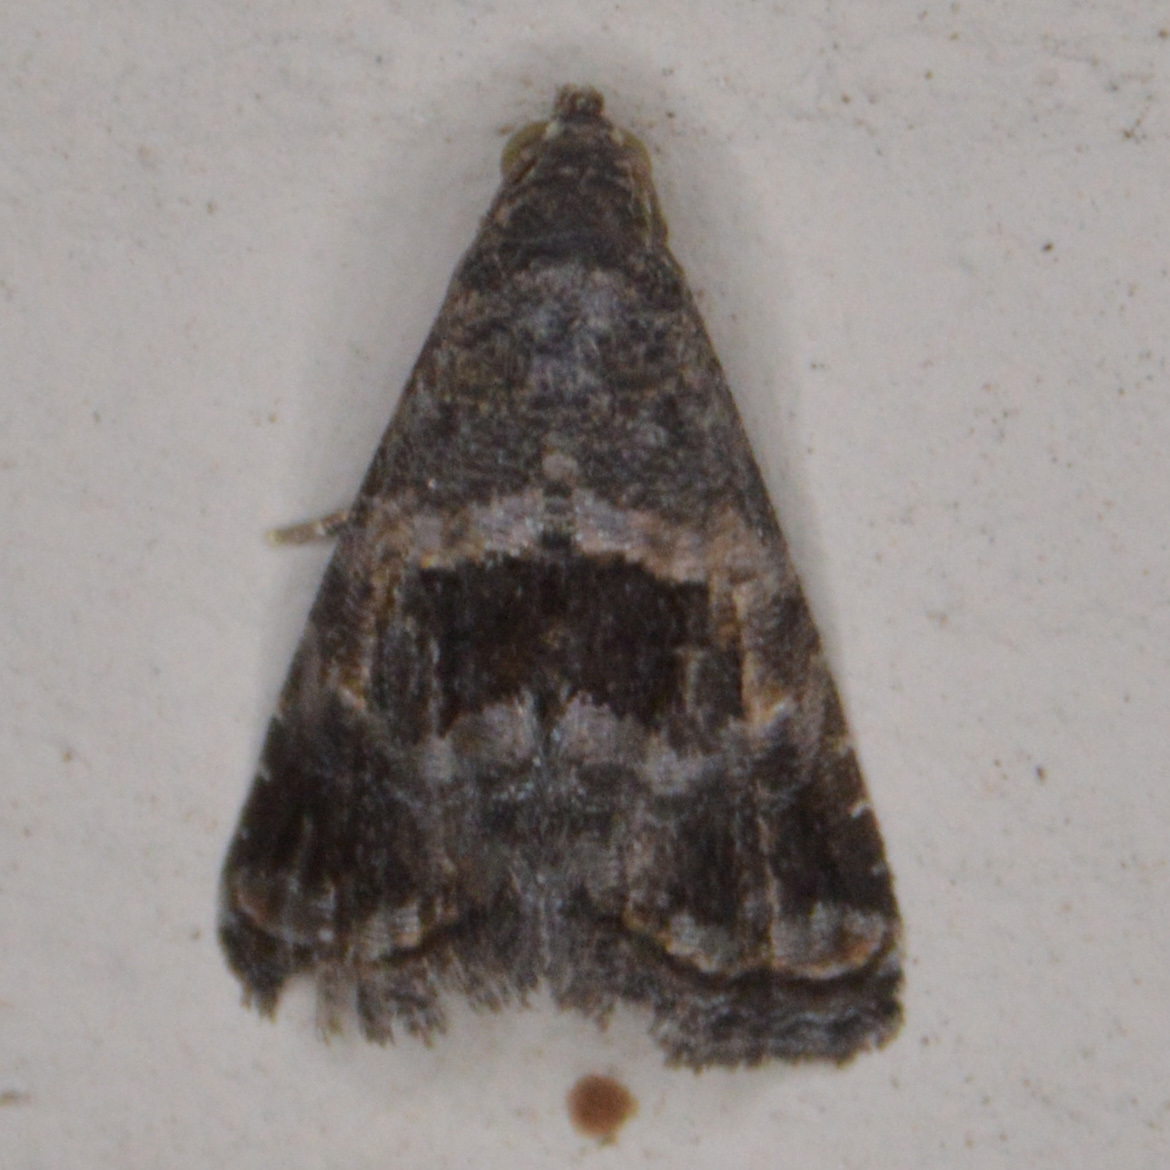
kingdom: Animalia
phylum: Arthropoda
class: Insecta
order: Lepidoptera
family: Noctuidae
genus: Tripudia
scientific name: Tripudia quadrifera
